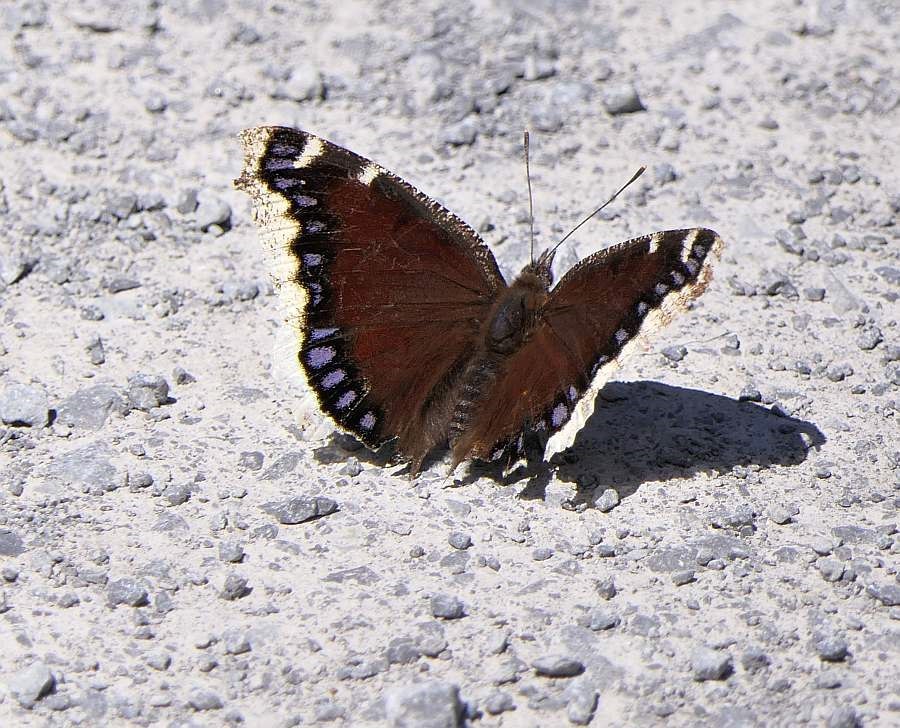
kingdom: Animalia
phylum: Arthropoda
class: Insecta
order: Lepidoptera
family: Nymphalidae
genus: Nymphalis
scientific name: Nymphalis antiopa
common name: Camberwell beauty
